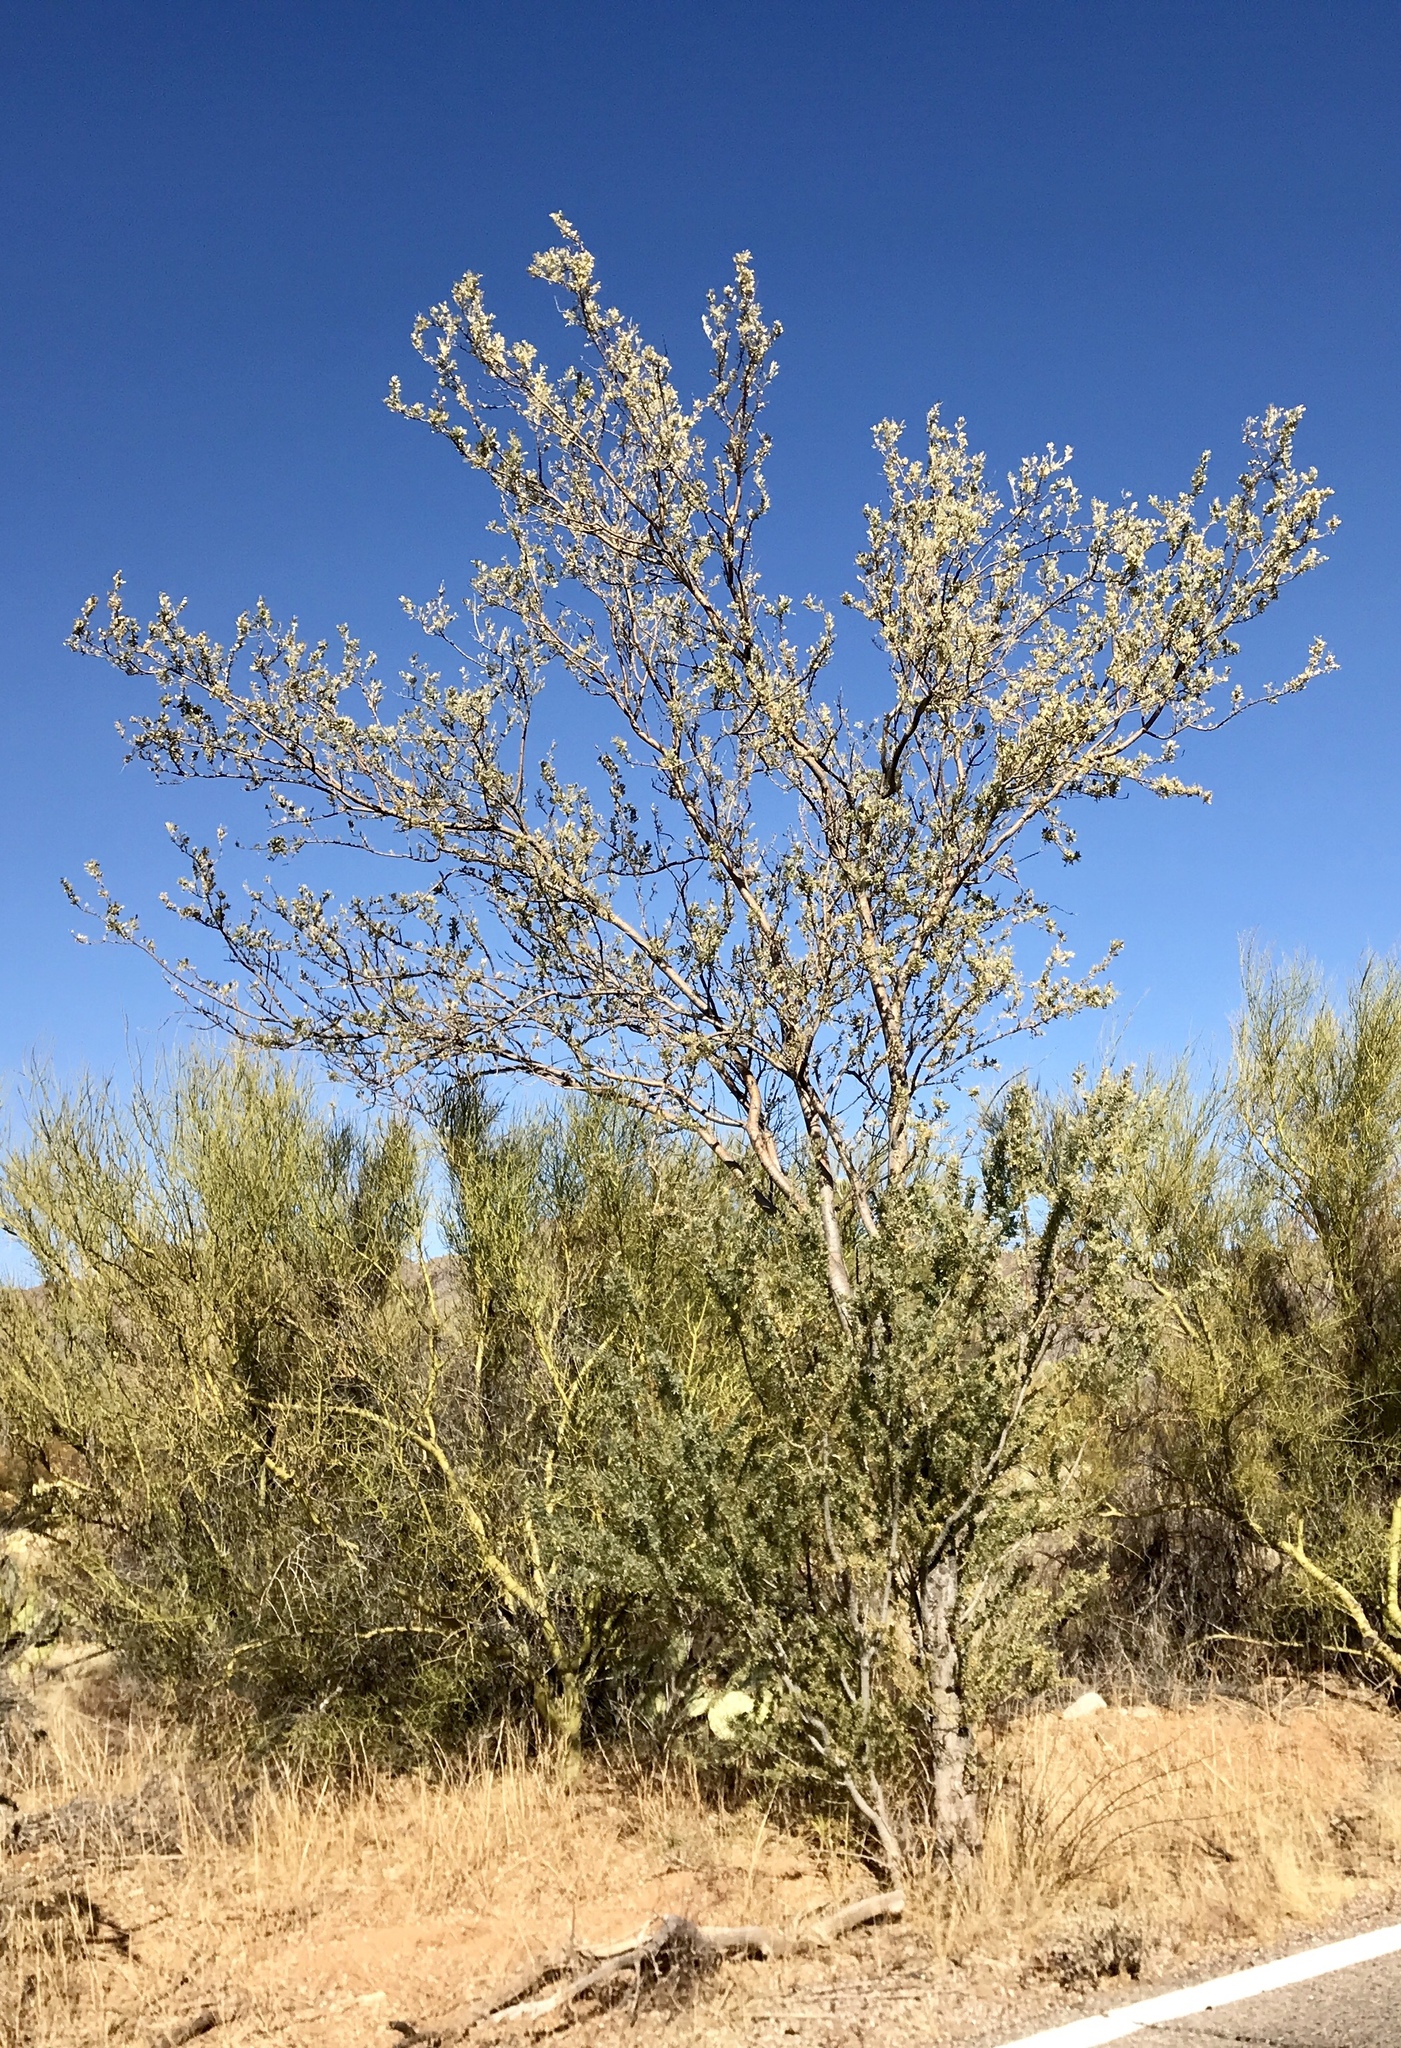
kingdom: Plantae
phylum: Tracheophyta
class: Magnoliopsida
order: Fabales
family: Fabaceae
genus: Olneya
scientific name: Olneya tesota
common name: Desert ironwood
